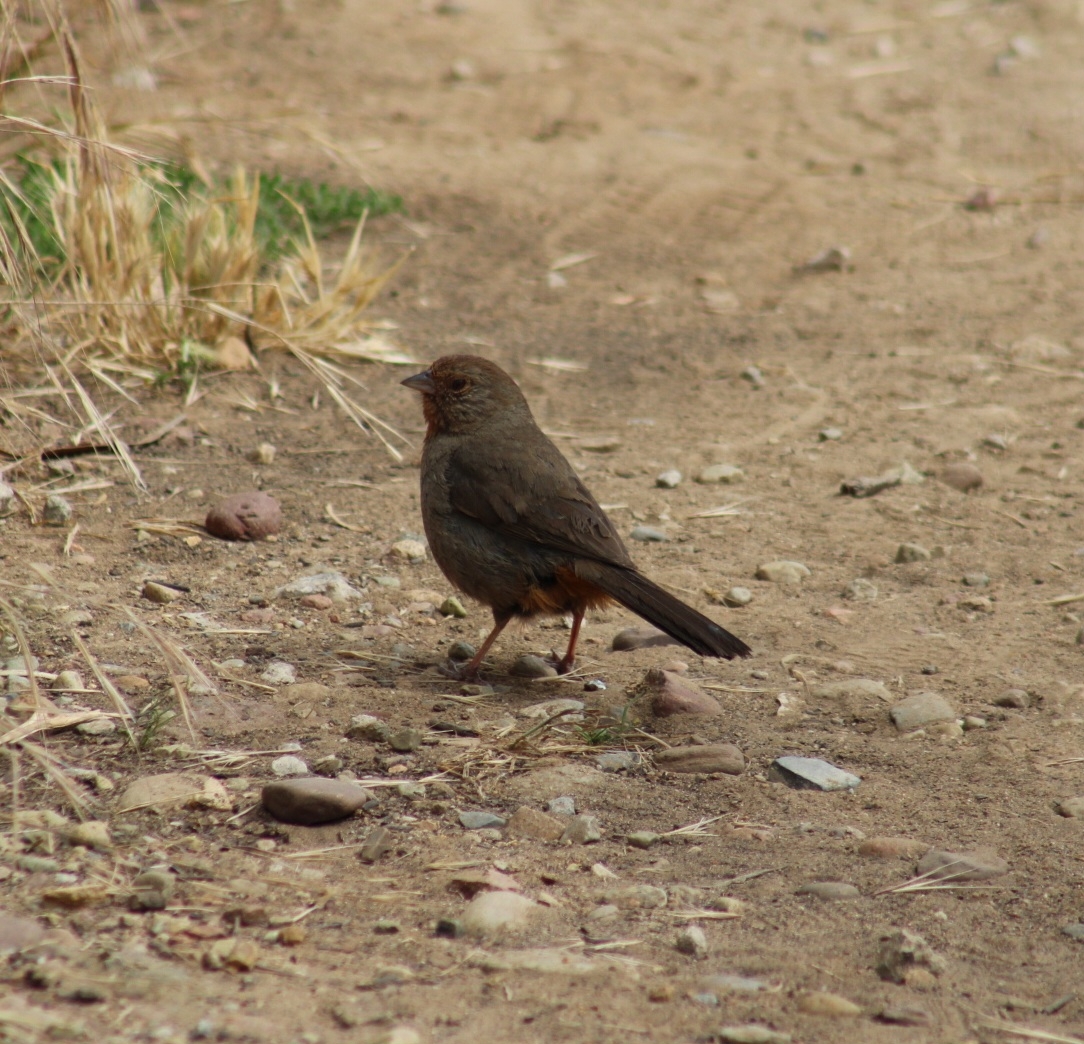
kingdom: Animalia
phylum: Chordata
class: Aves
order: Passeriformes
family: Passerellidae
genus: Melozone
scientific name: Melozone crissalis
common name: California towhee
